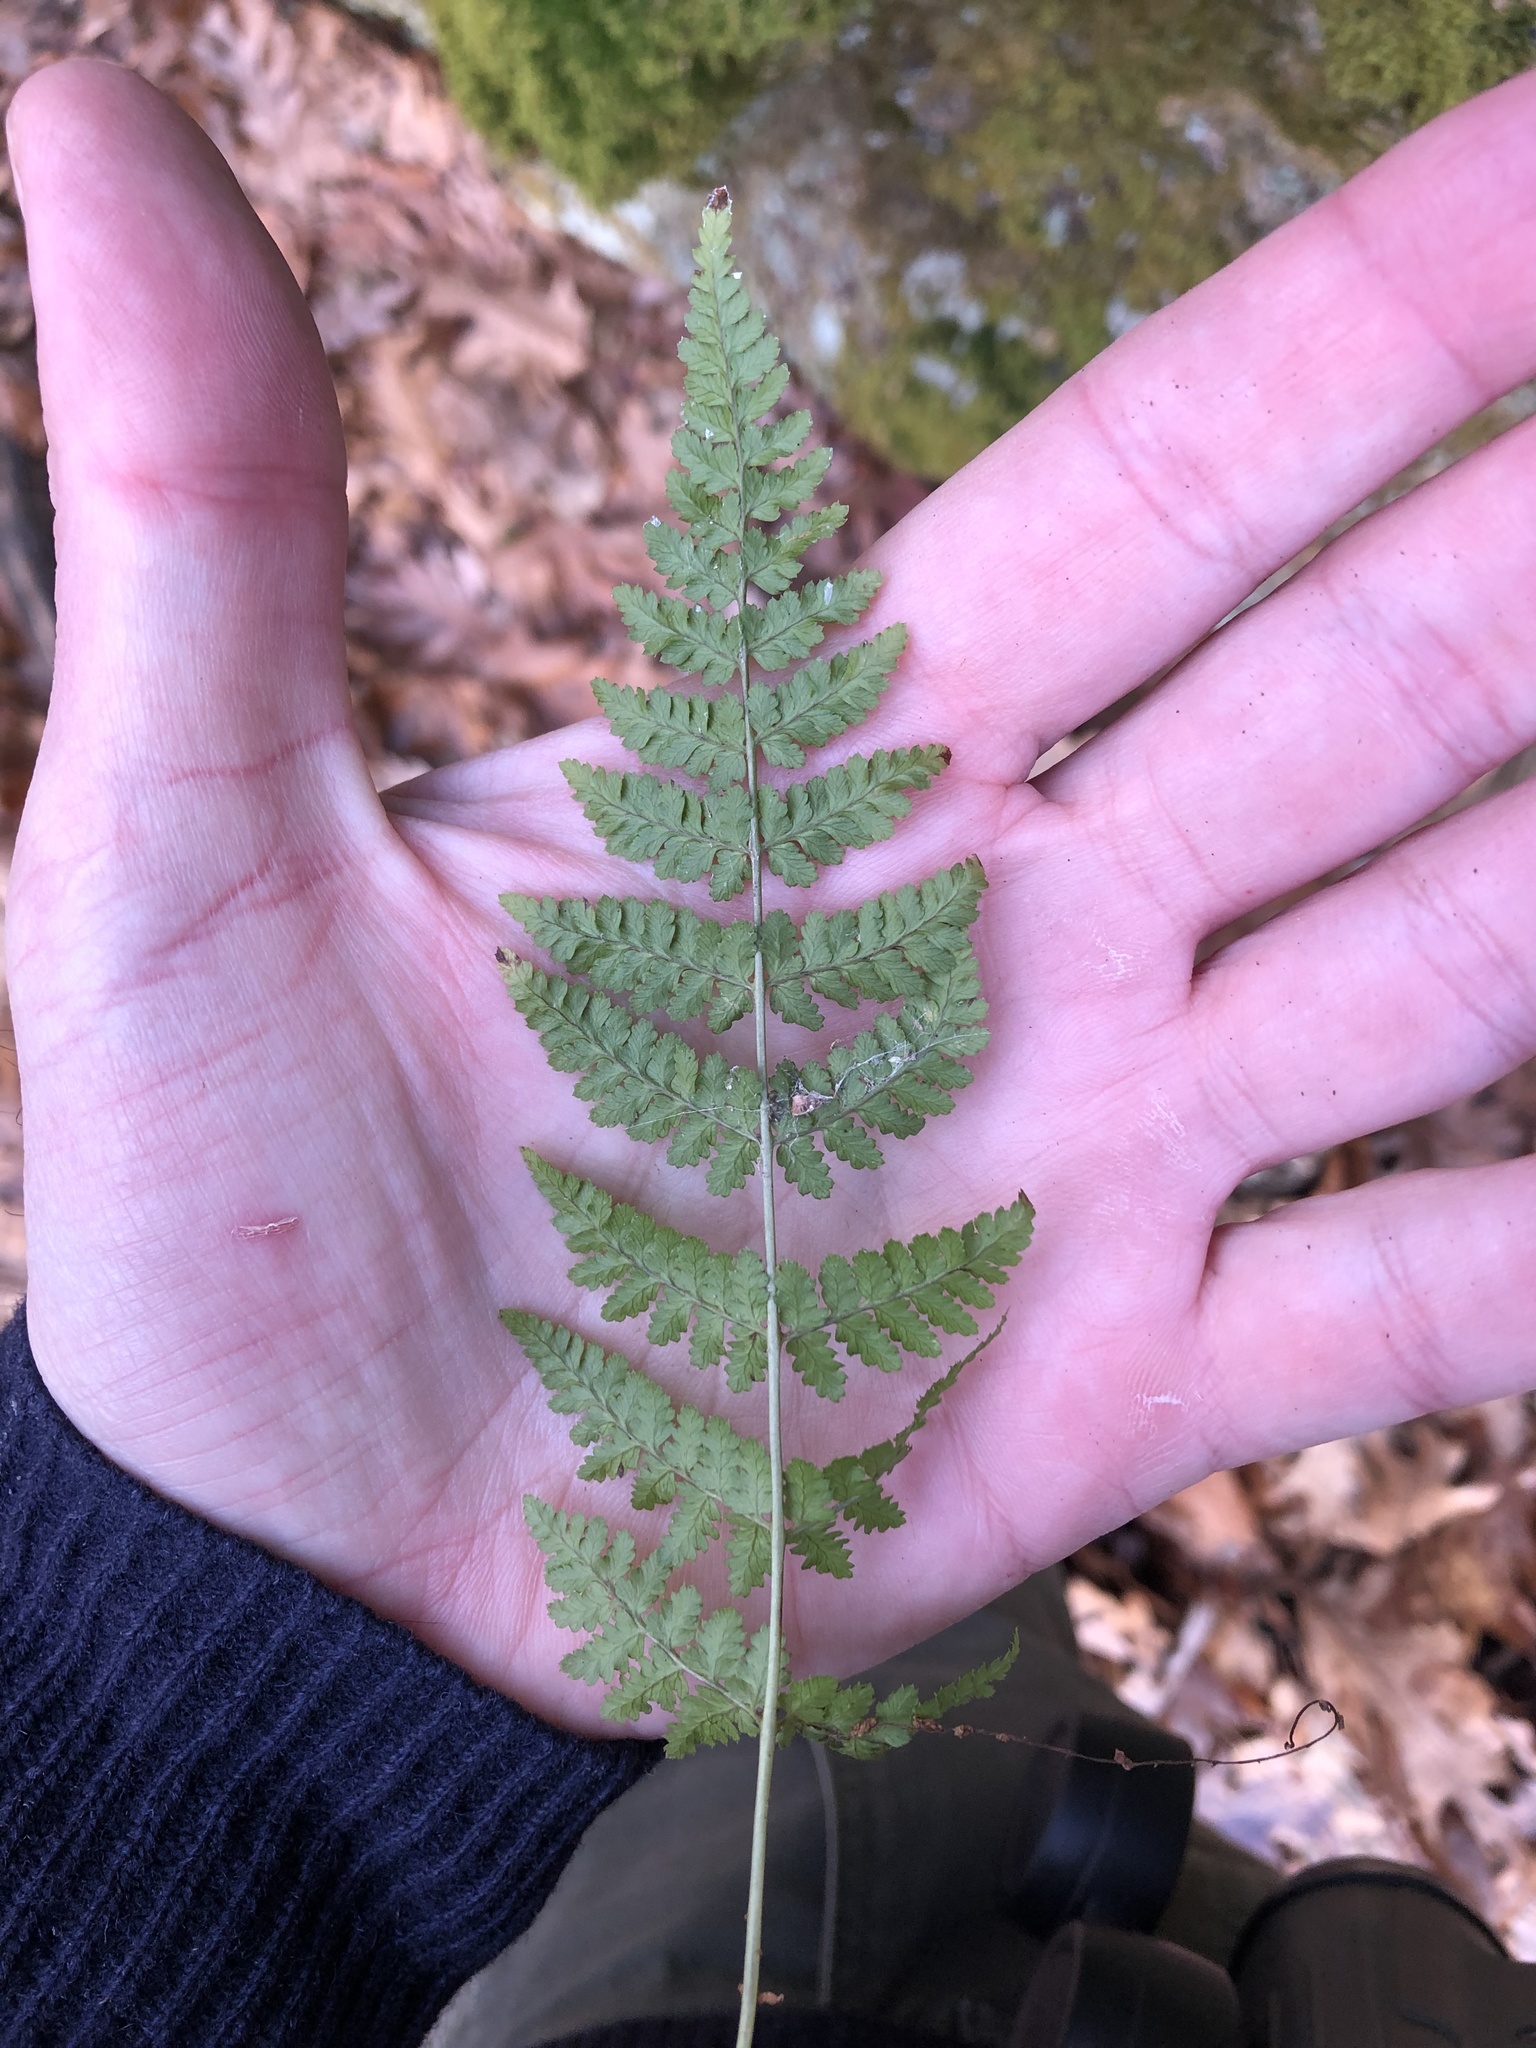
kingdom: Plantae
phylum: Tracheophyta
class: Polypodiopsida
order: Polypodiales
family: Dryopteridaceae
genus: Dryopteris
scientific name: Dryopteris intermedia
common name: Evergreen wood fern
